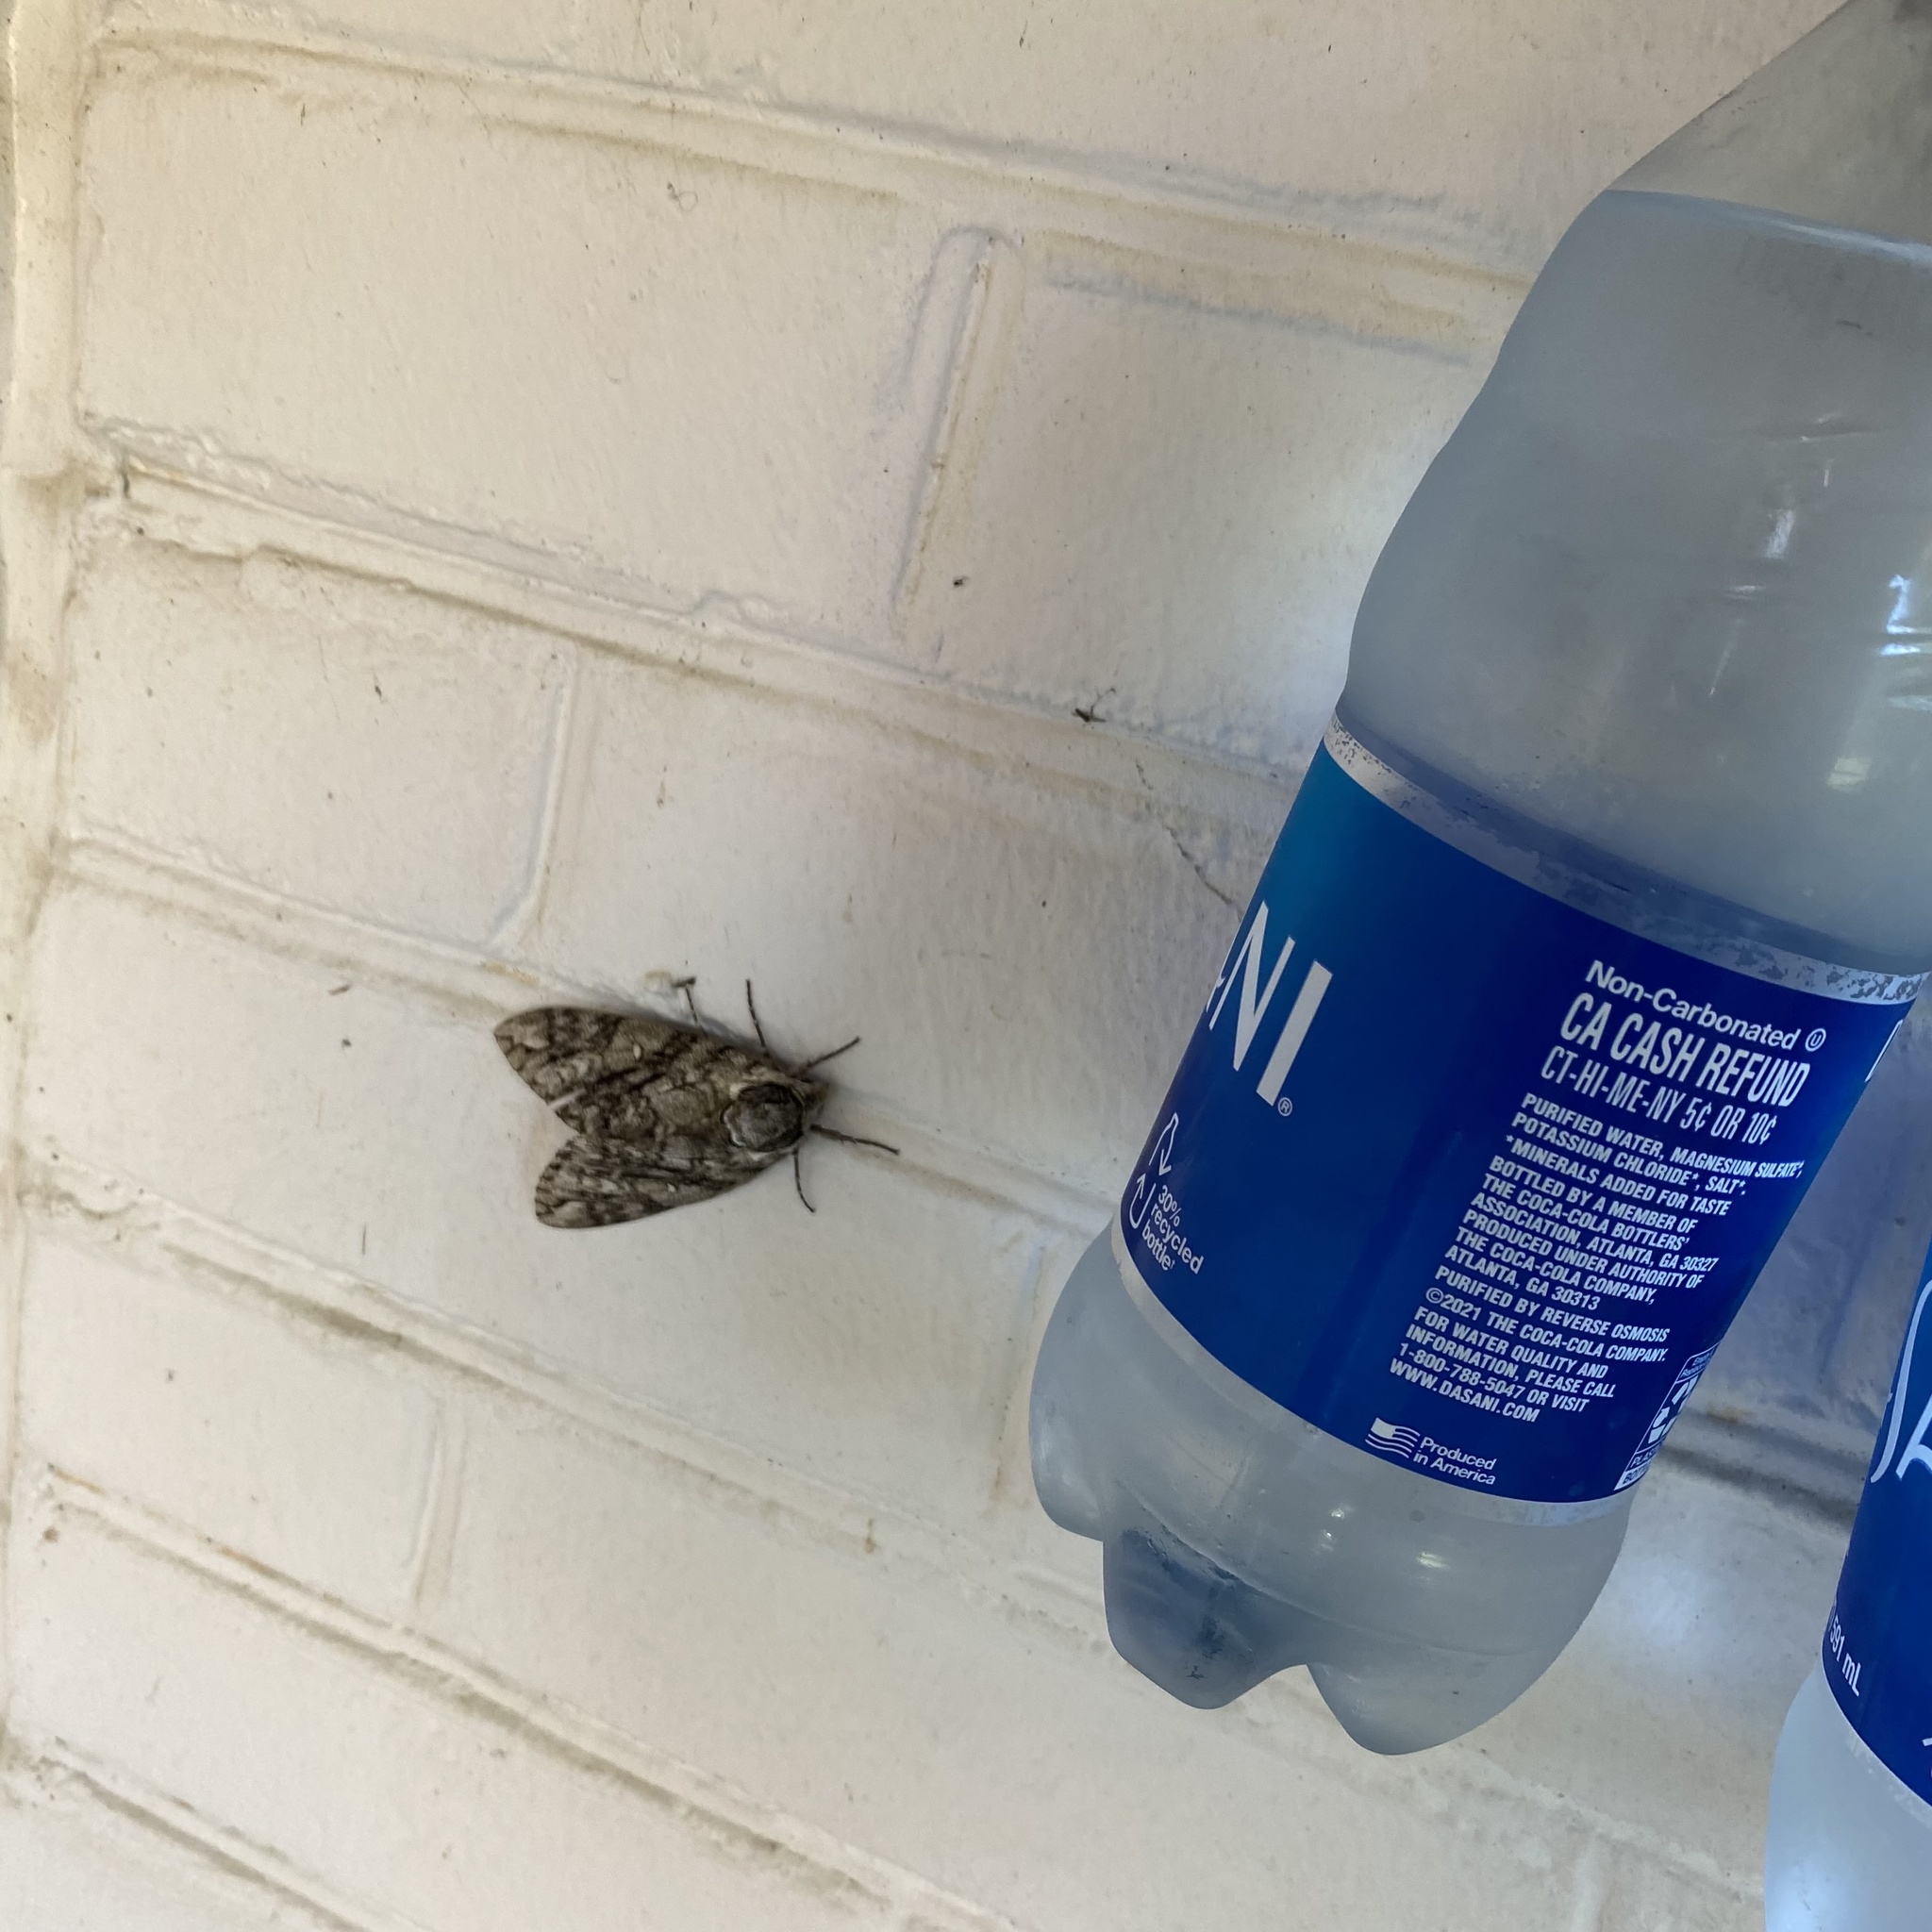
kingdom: Animalia
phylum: Arthropoda
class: Insecta
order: Lepidoptera
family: Sphingidae
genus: Ceratomia
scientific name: Ceratomia undulosa
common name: Waved sphinx
